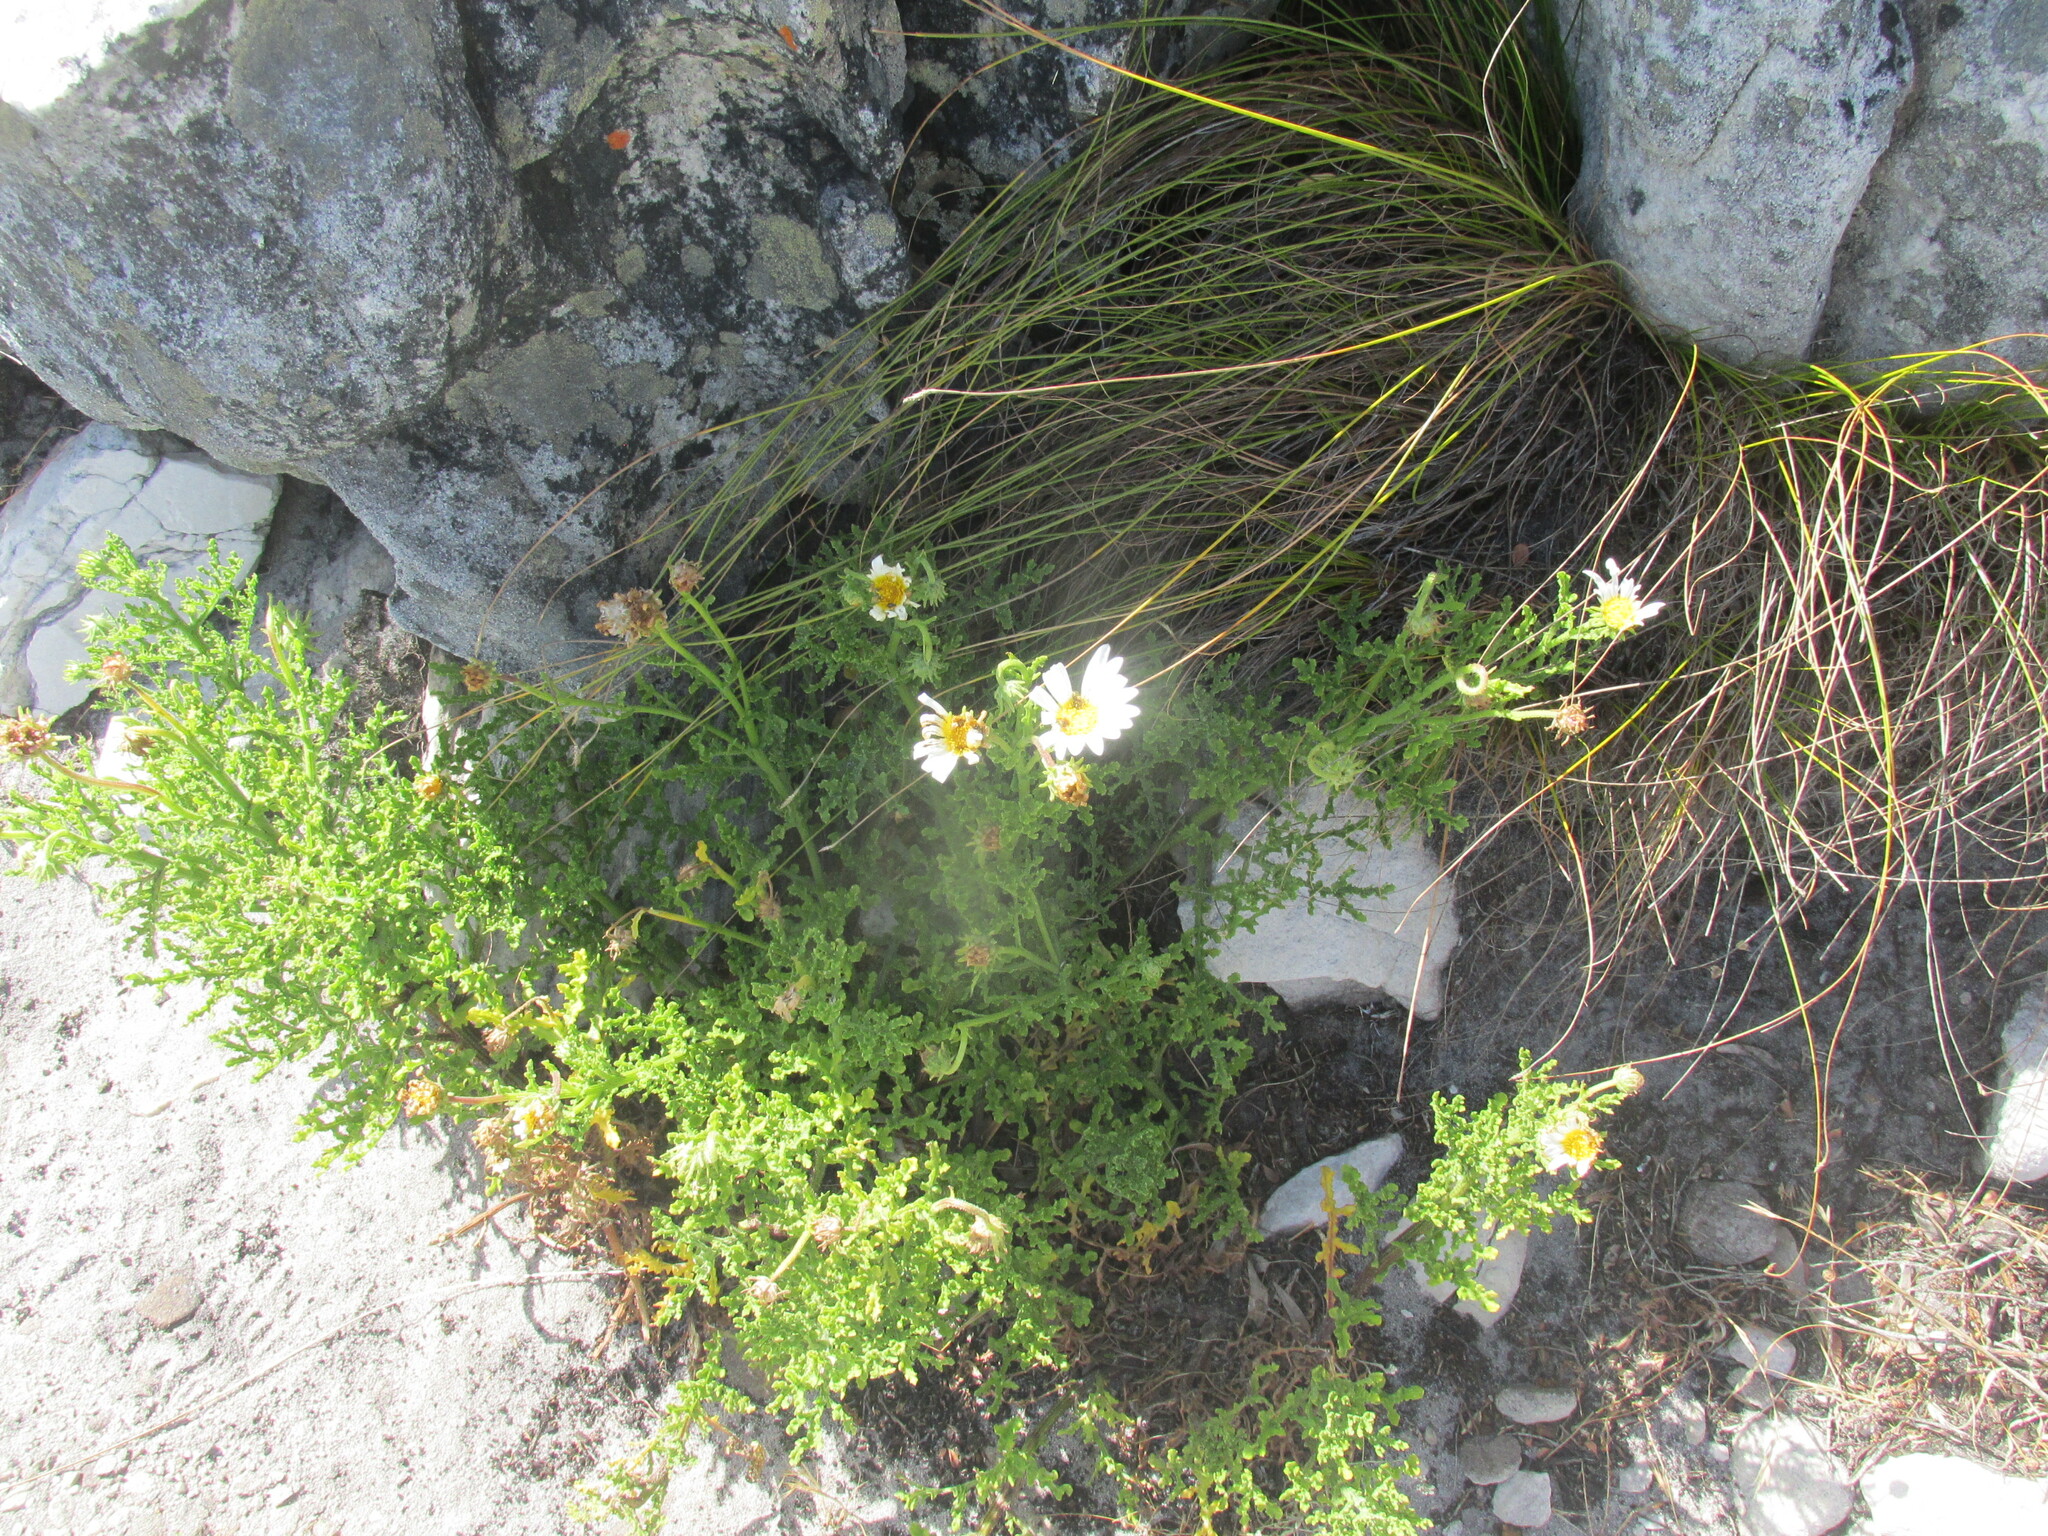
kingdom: Plantae
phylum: Tracheophyta
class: Magnoliopsida
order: Asterales
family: Asteraceae
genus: Arctotis
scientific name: Arctotis aspera
